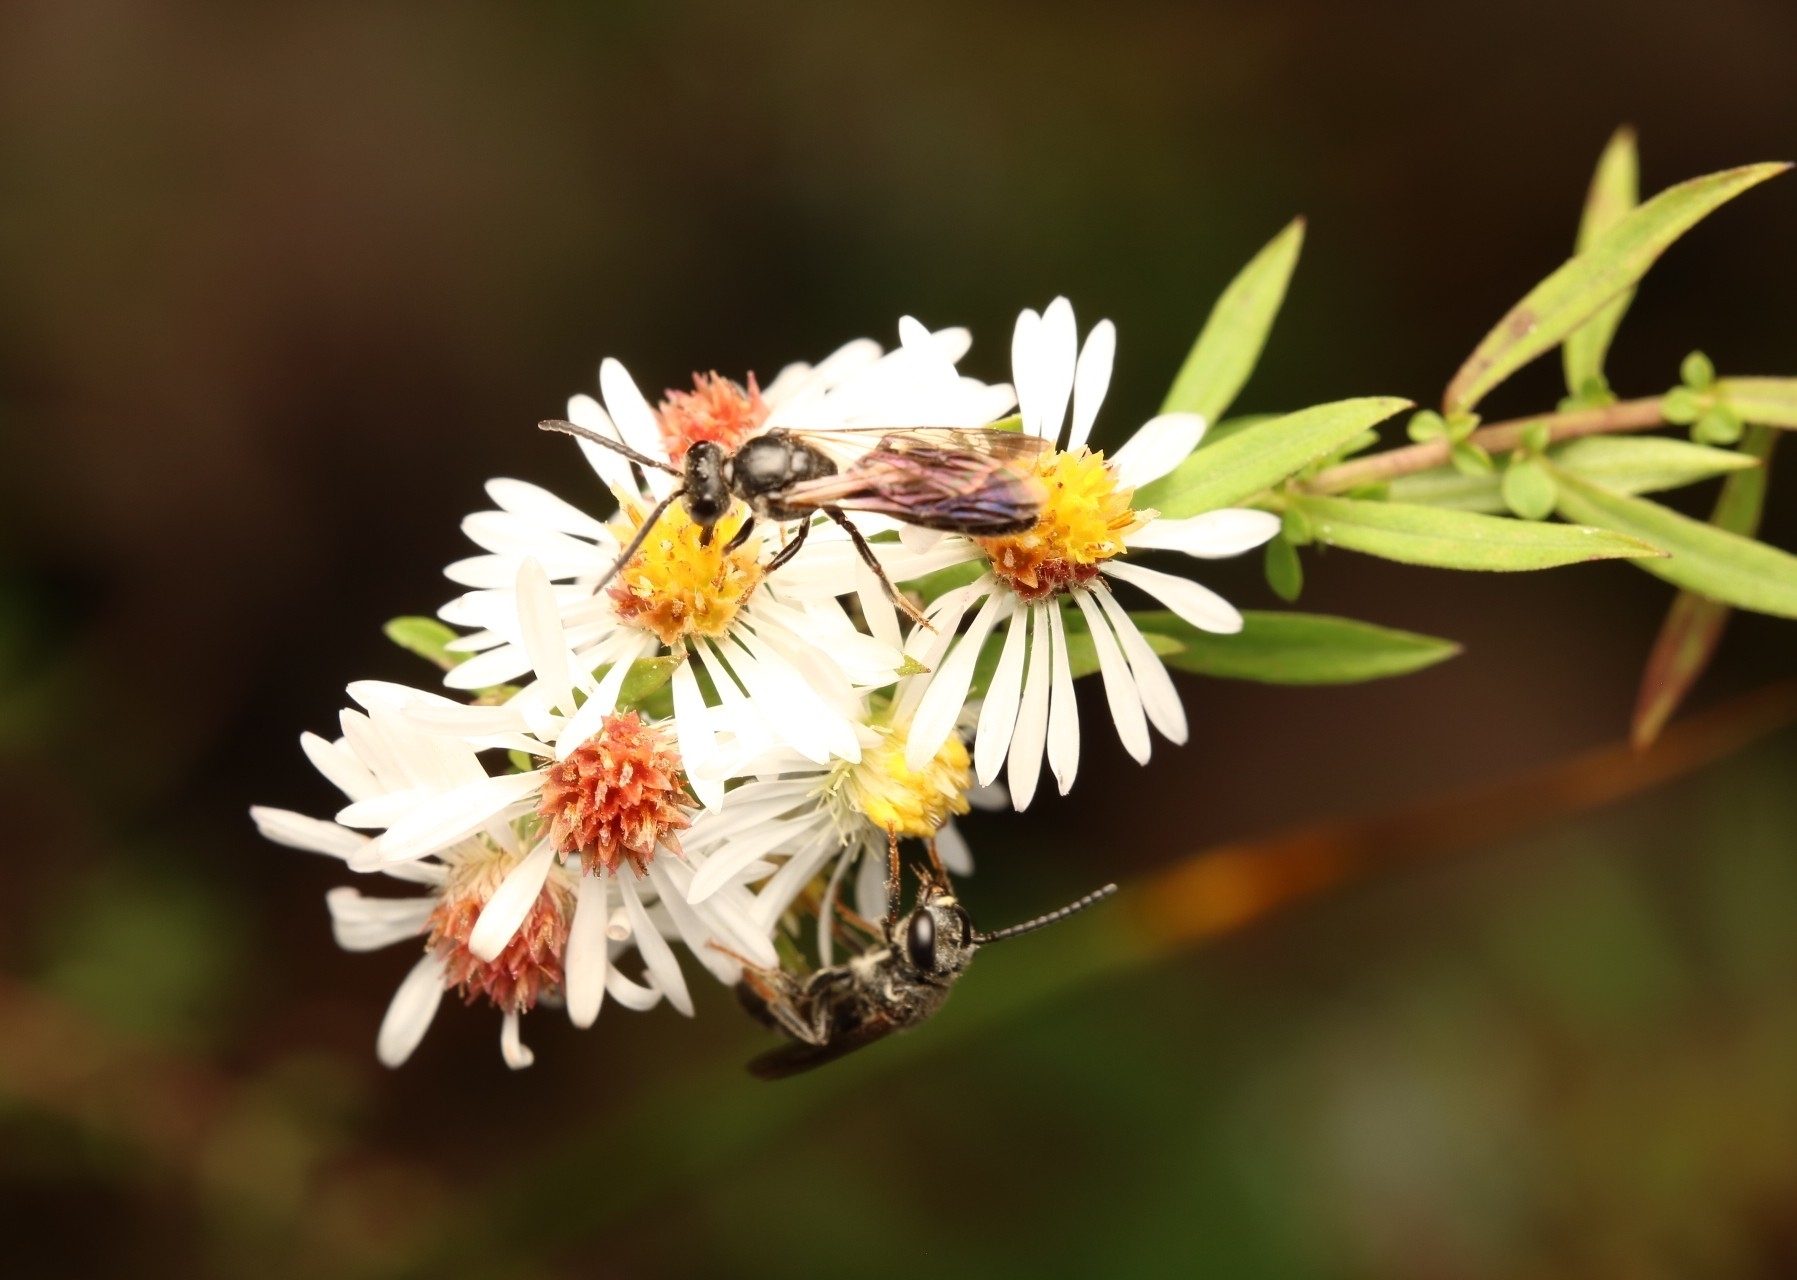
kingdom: Animalia
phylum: Arthropoda
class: Insecta
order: Hymenoptera
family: Halictidae
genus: Lasioglossum
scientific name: Lasioglossum fuscipenne
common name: Brown-winged sweat bee
